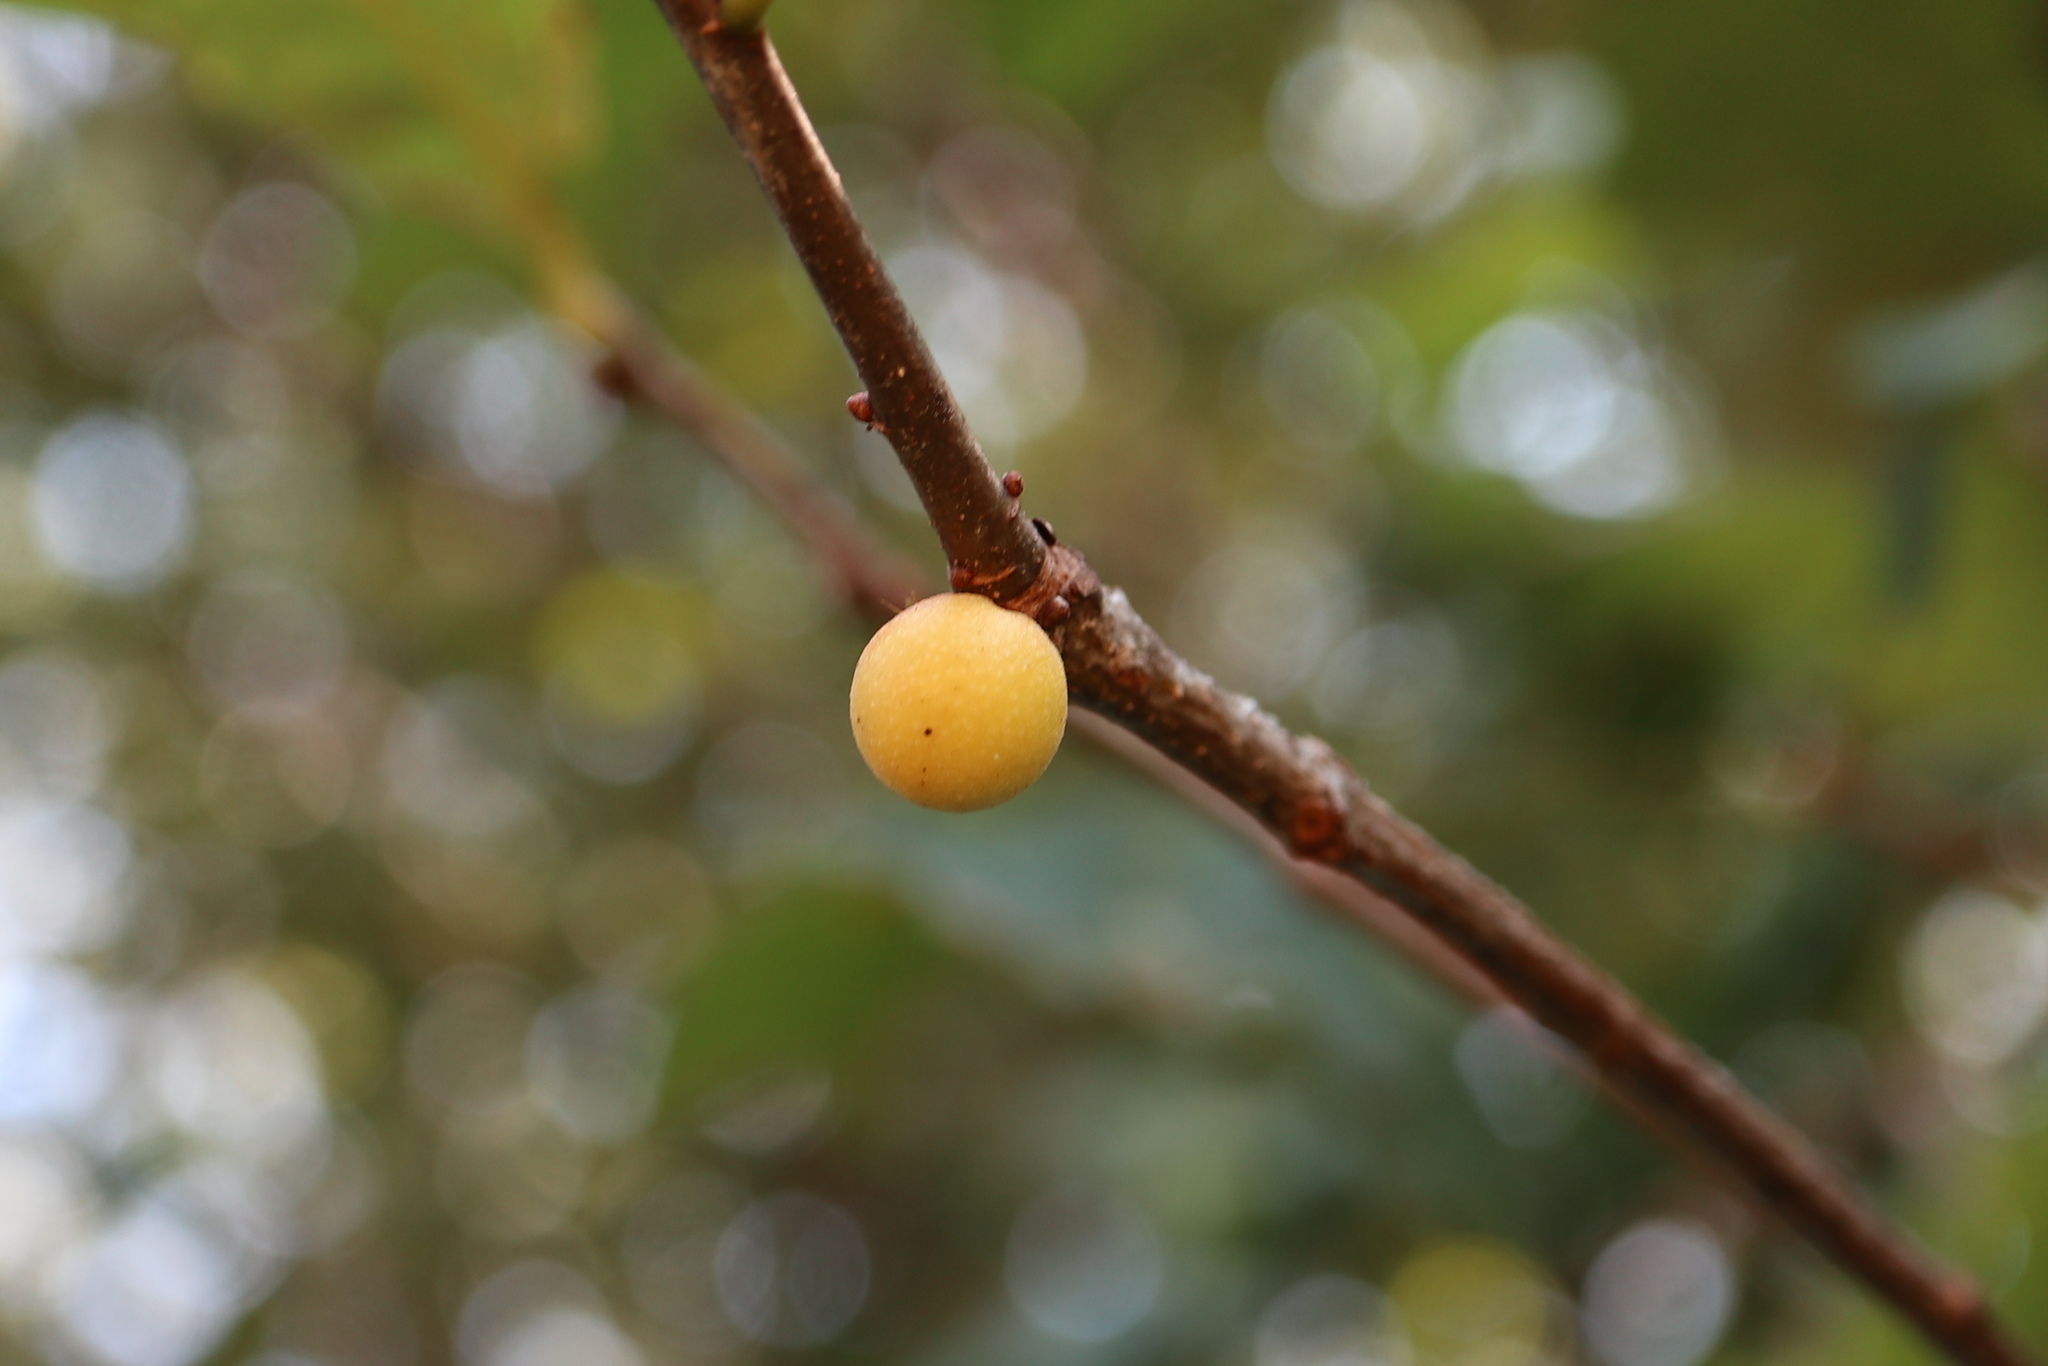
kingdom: Animalia
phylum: Arthropoda
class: Insecta
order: Hymenoptera
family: Cynipidae
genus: Disholcaspis
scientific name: Disholcaspis quercusglobulus
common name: Round bullet gall wasp
